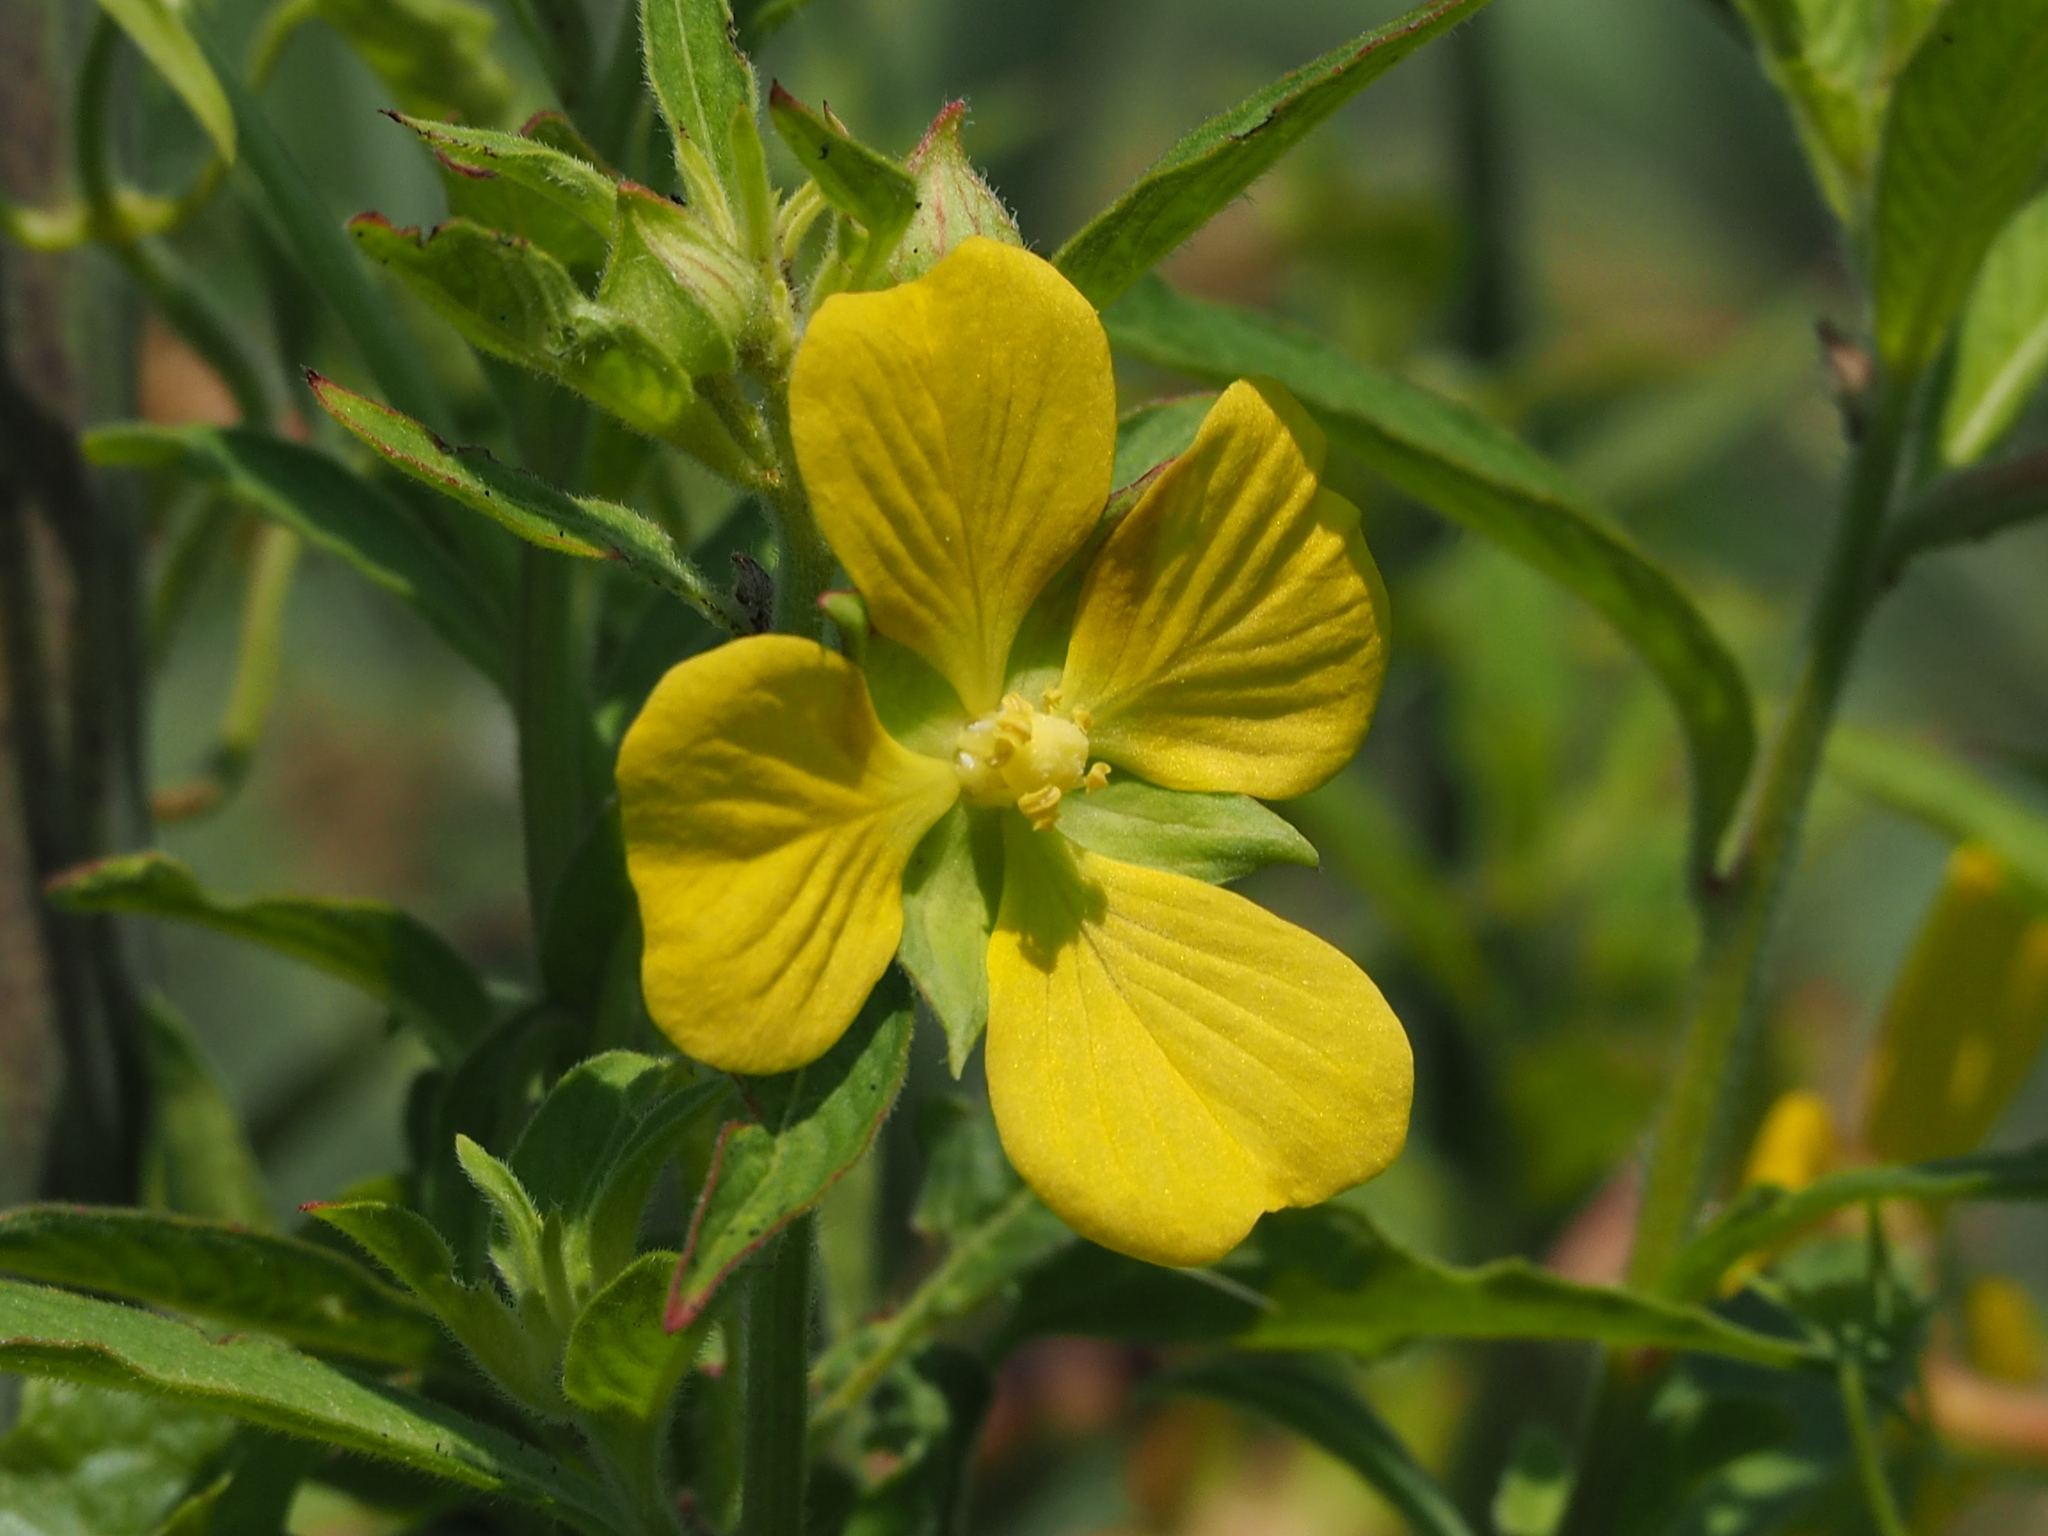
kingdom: Plantae
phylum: Tracheophyta
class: Magnoliopsida
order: Myrtales
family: Onagraceae
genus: Ludwigia
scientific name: Ludwigia octovalvis
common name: Water-primrose
